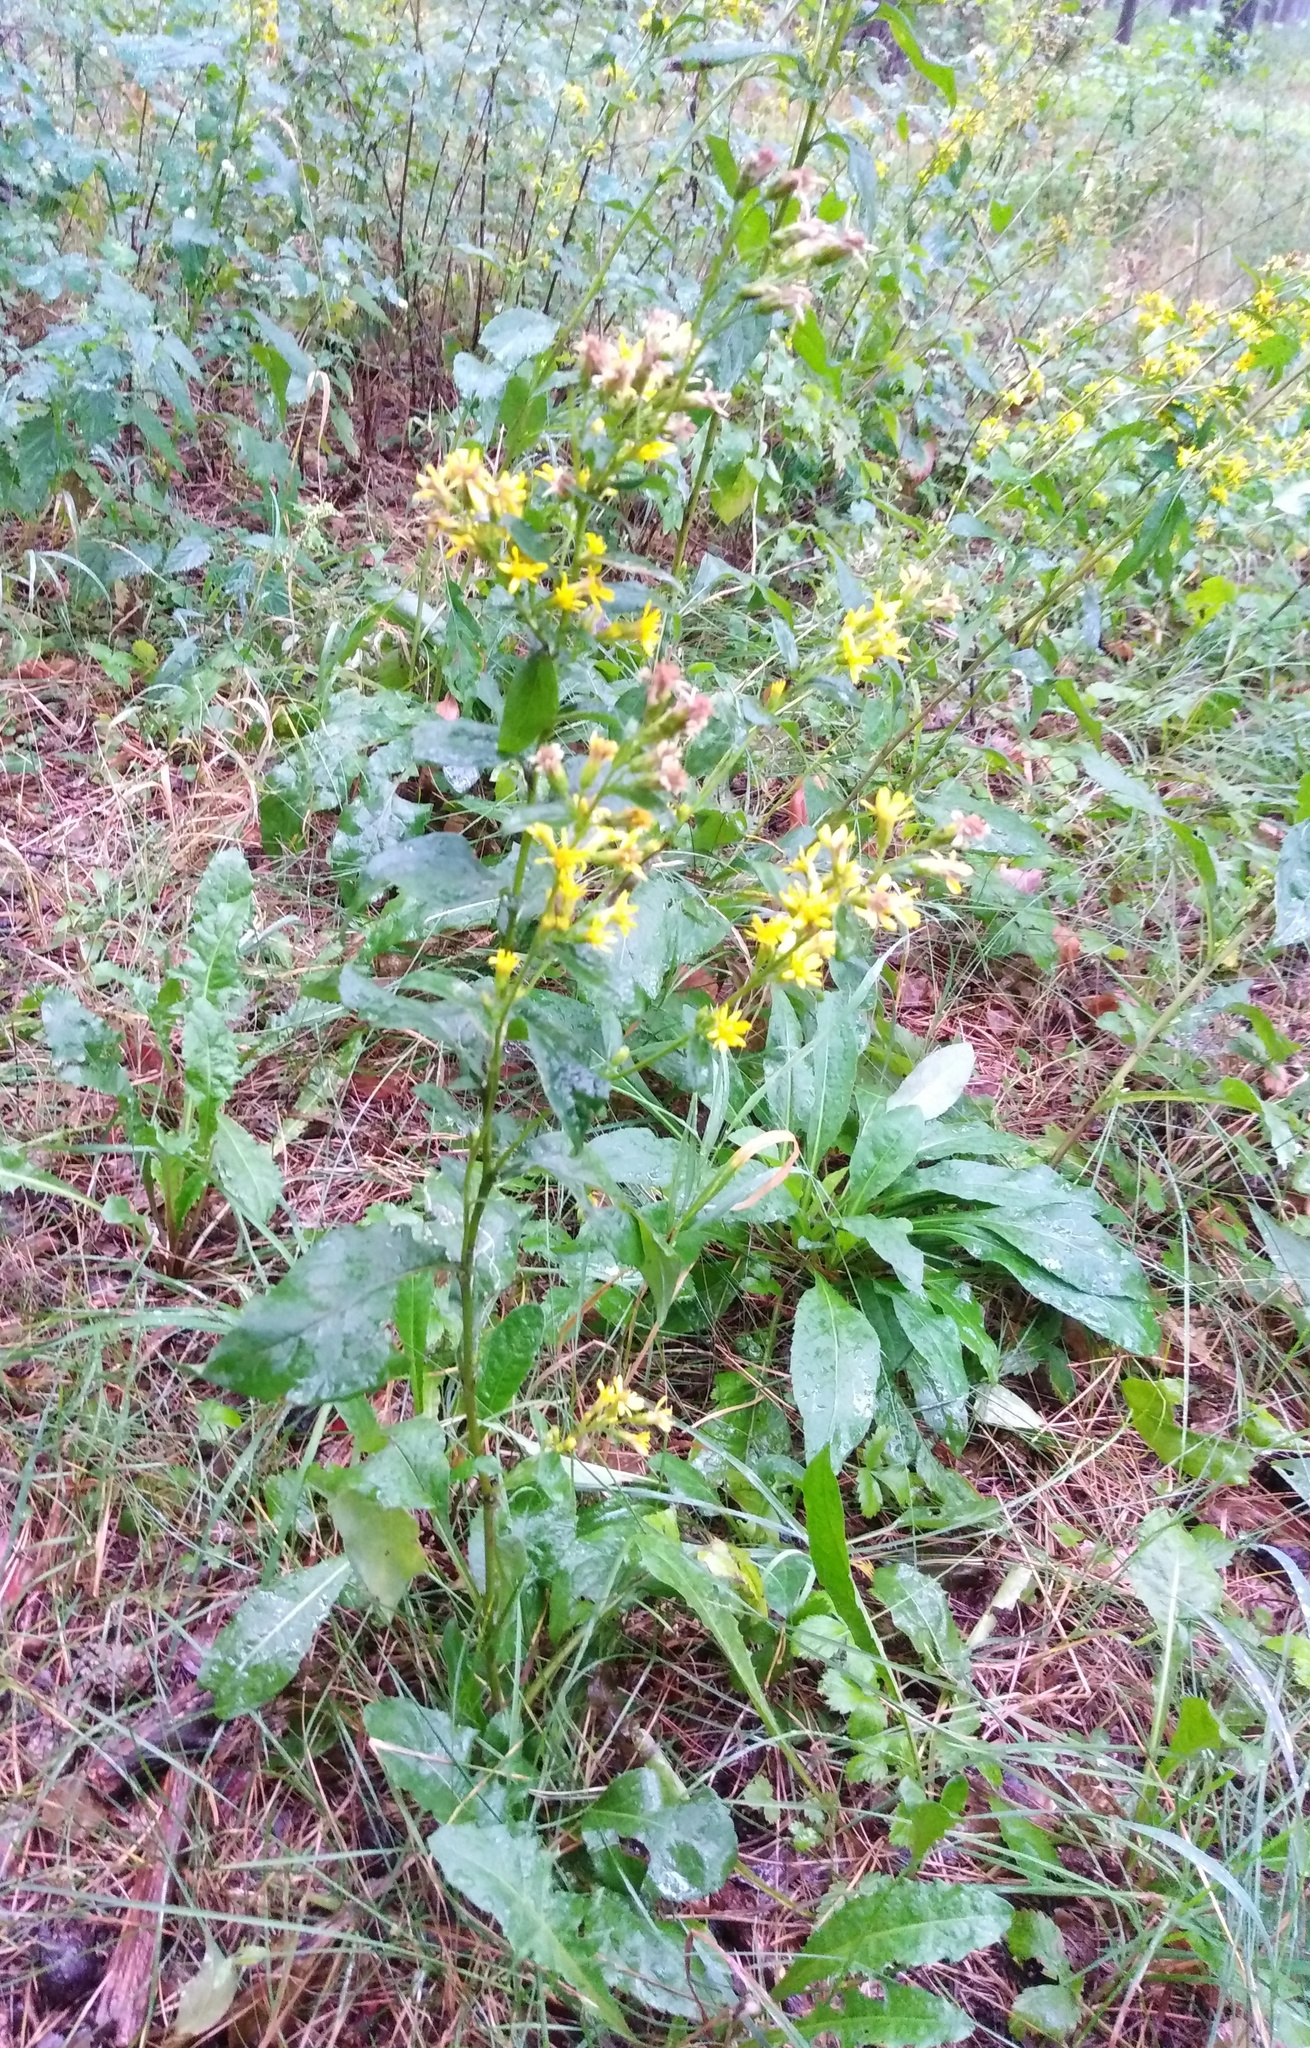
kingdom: Plantae
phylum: Tracheophyta
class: Magnoliopsida
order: Asterales
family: Asteraceae
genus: Solidago
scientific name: Solidago virgaurea
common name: Goldenrod
